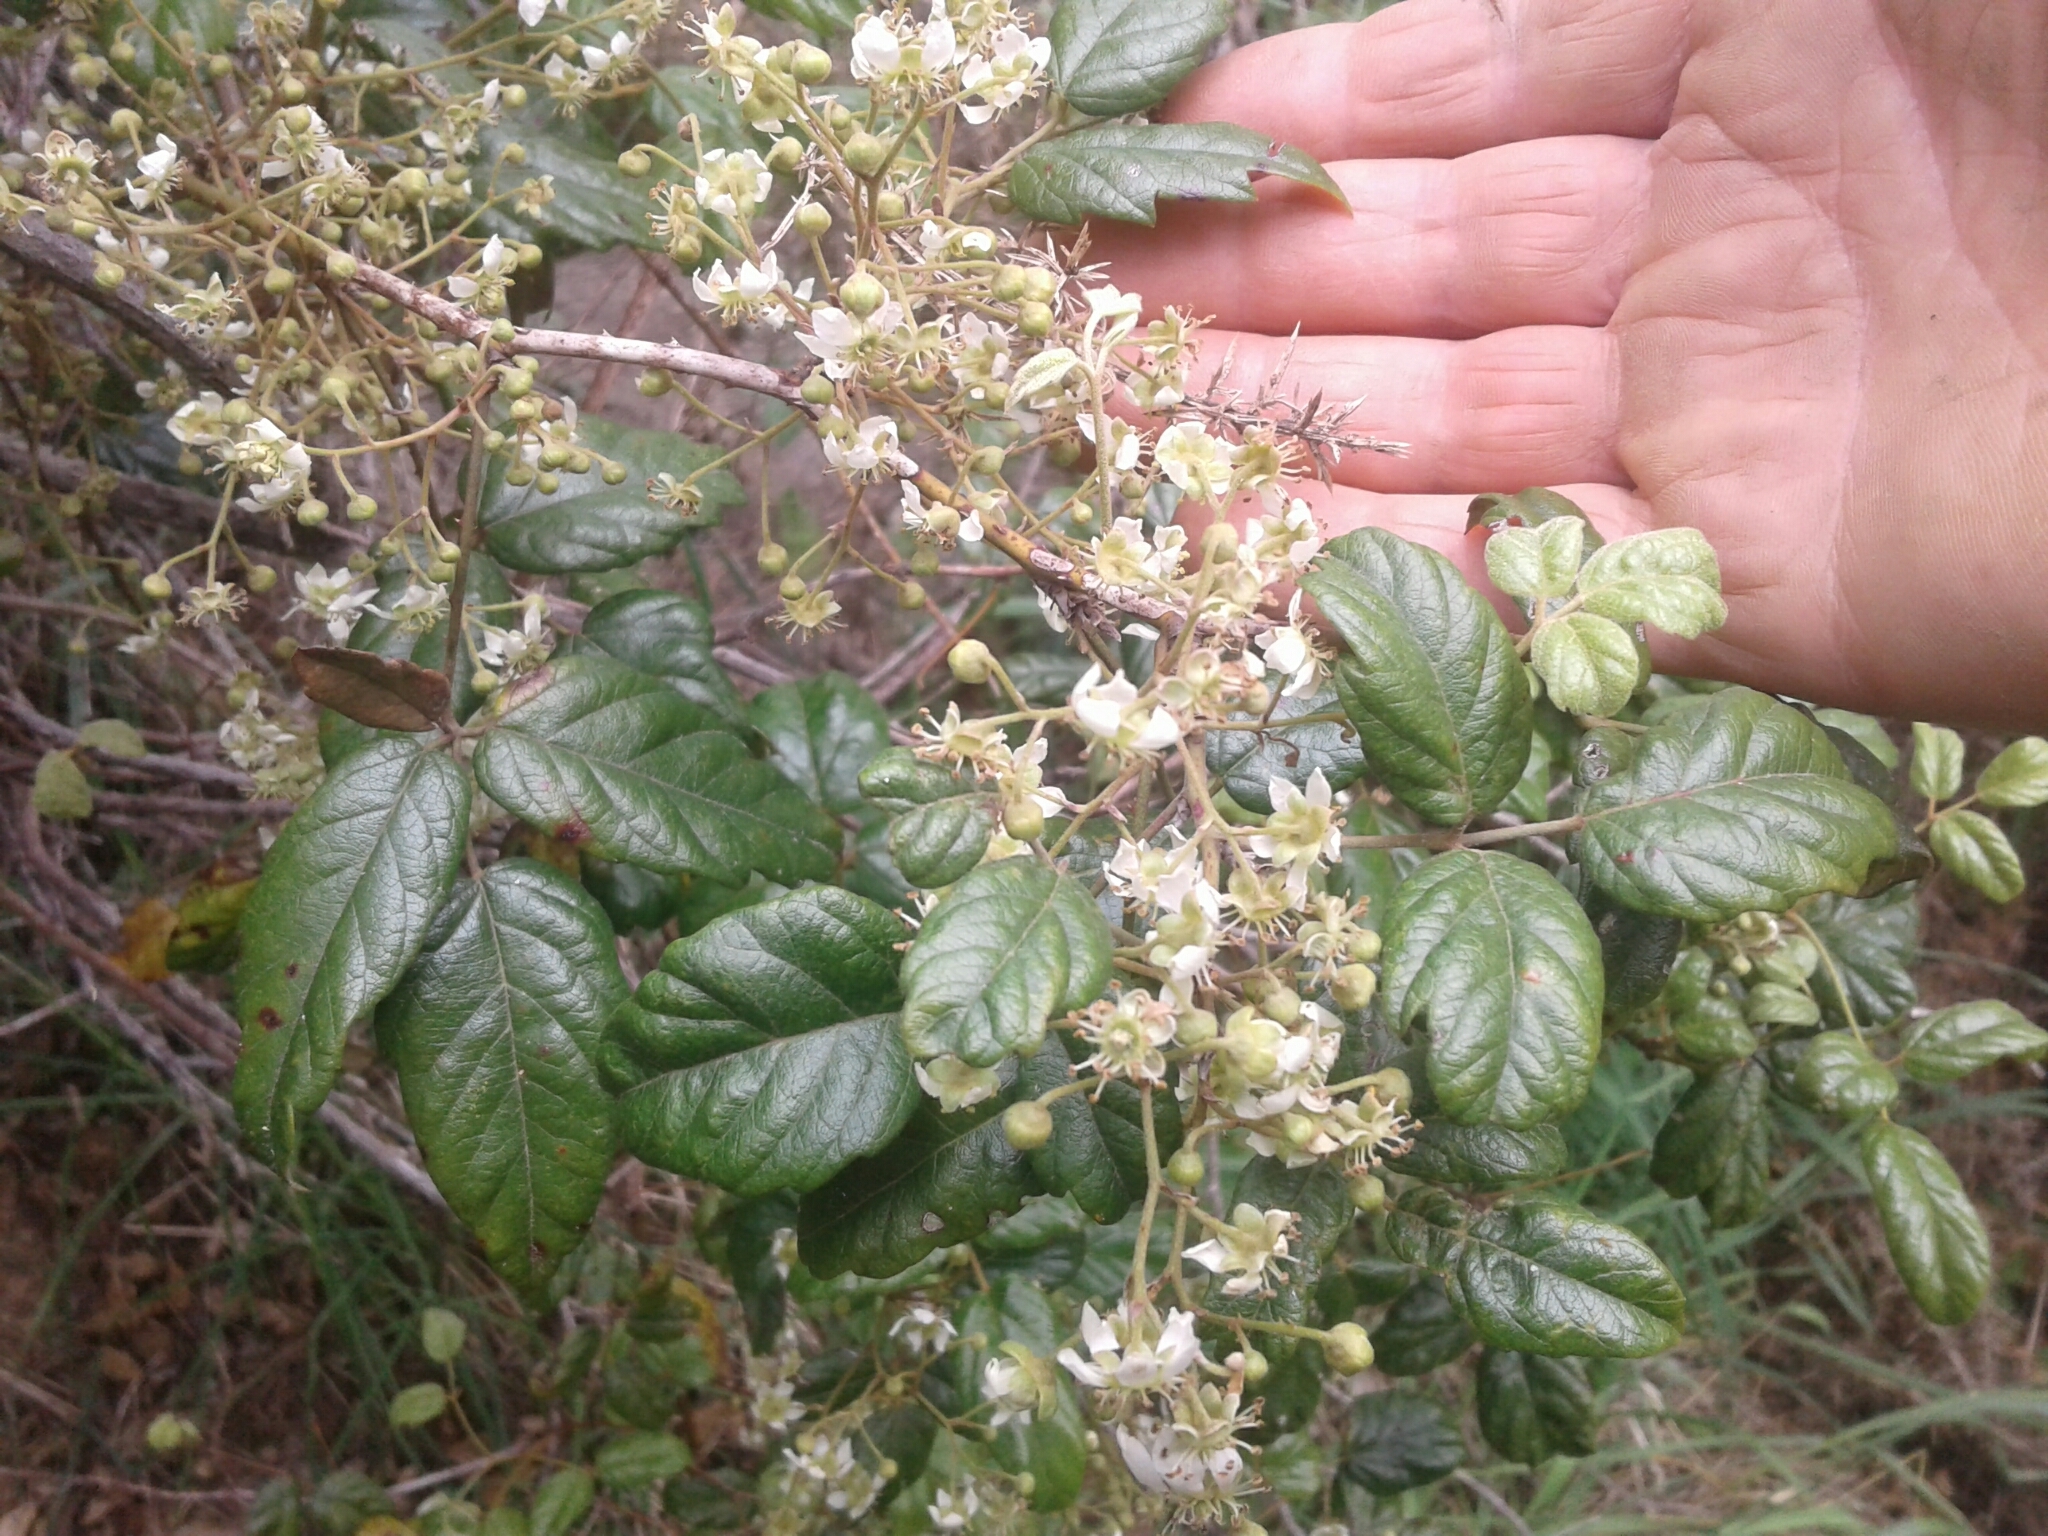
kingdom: Plantae
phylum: Tracheophyta
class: Magnoliopsida
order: Rosales
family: Rosaceae
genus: Rubus
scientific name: Rubus schmidelioides
